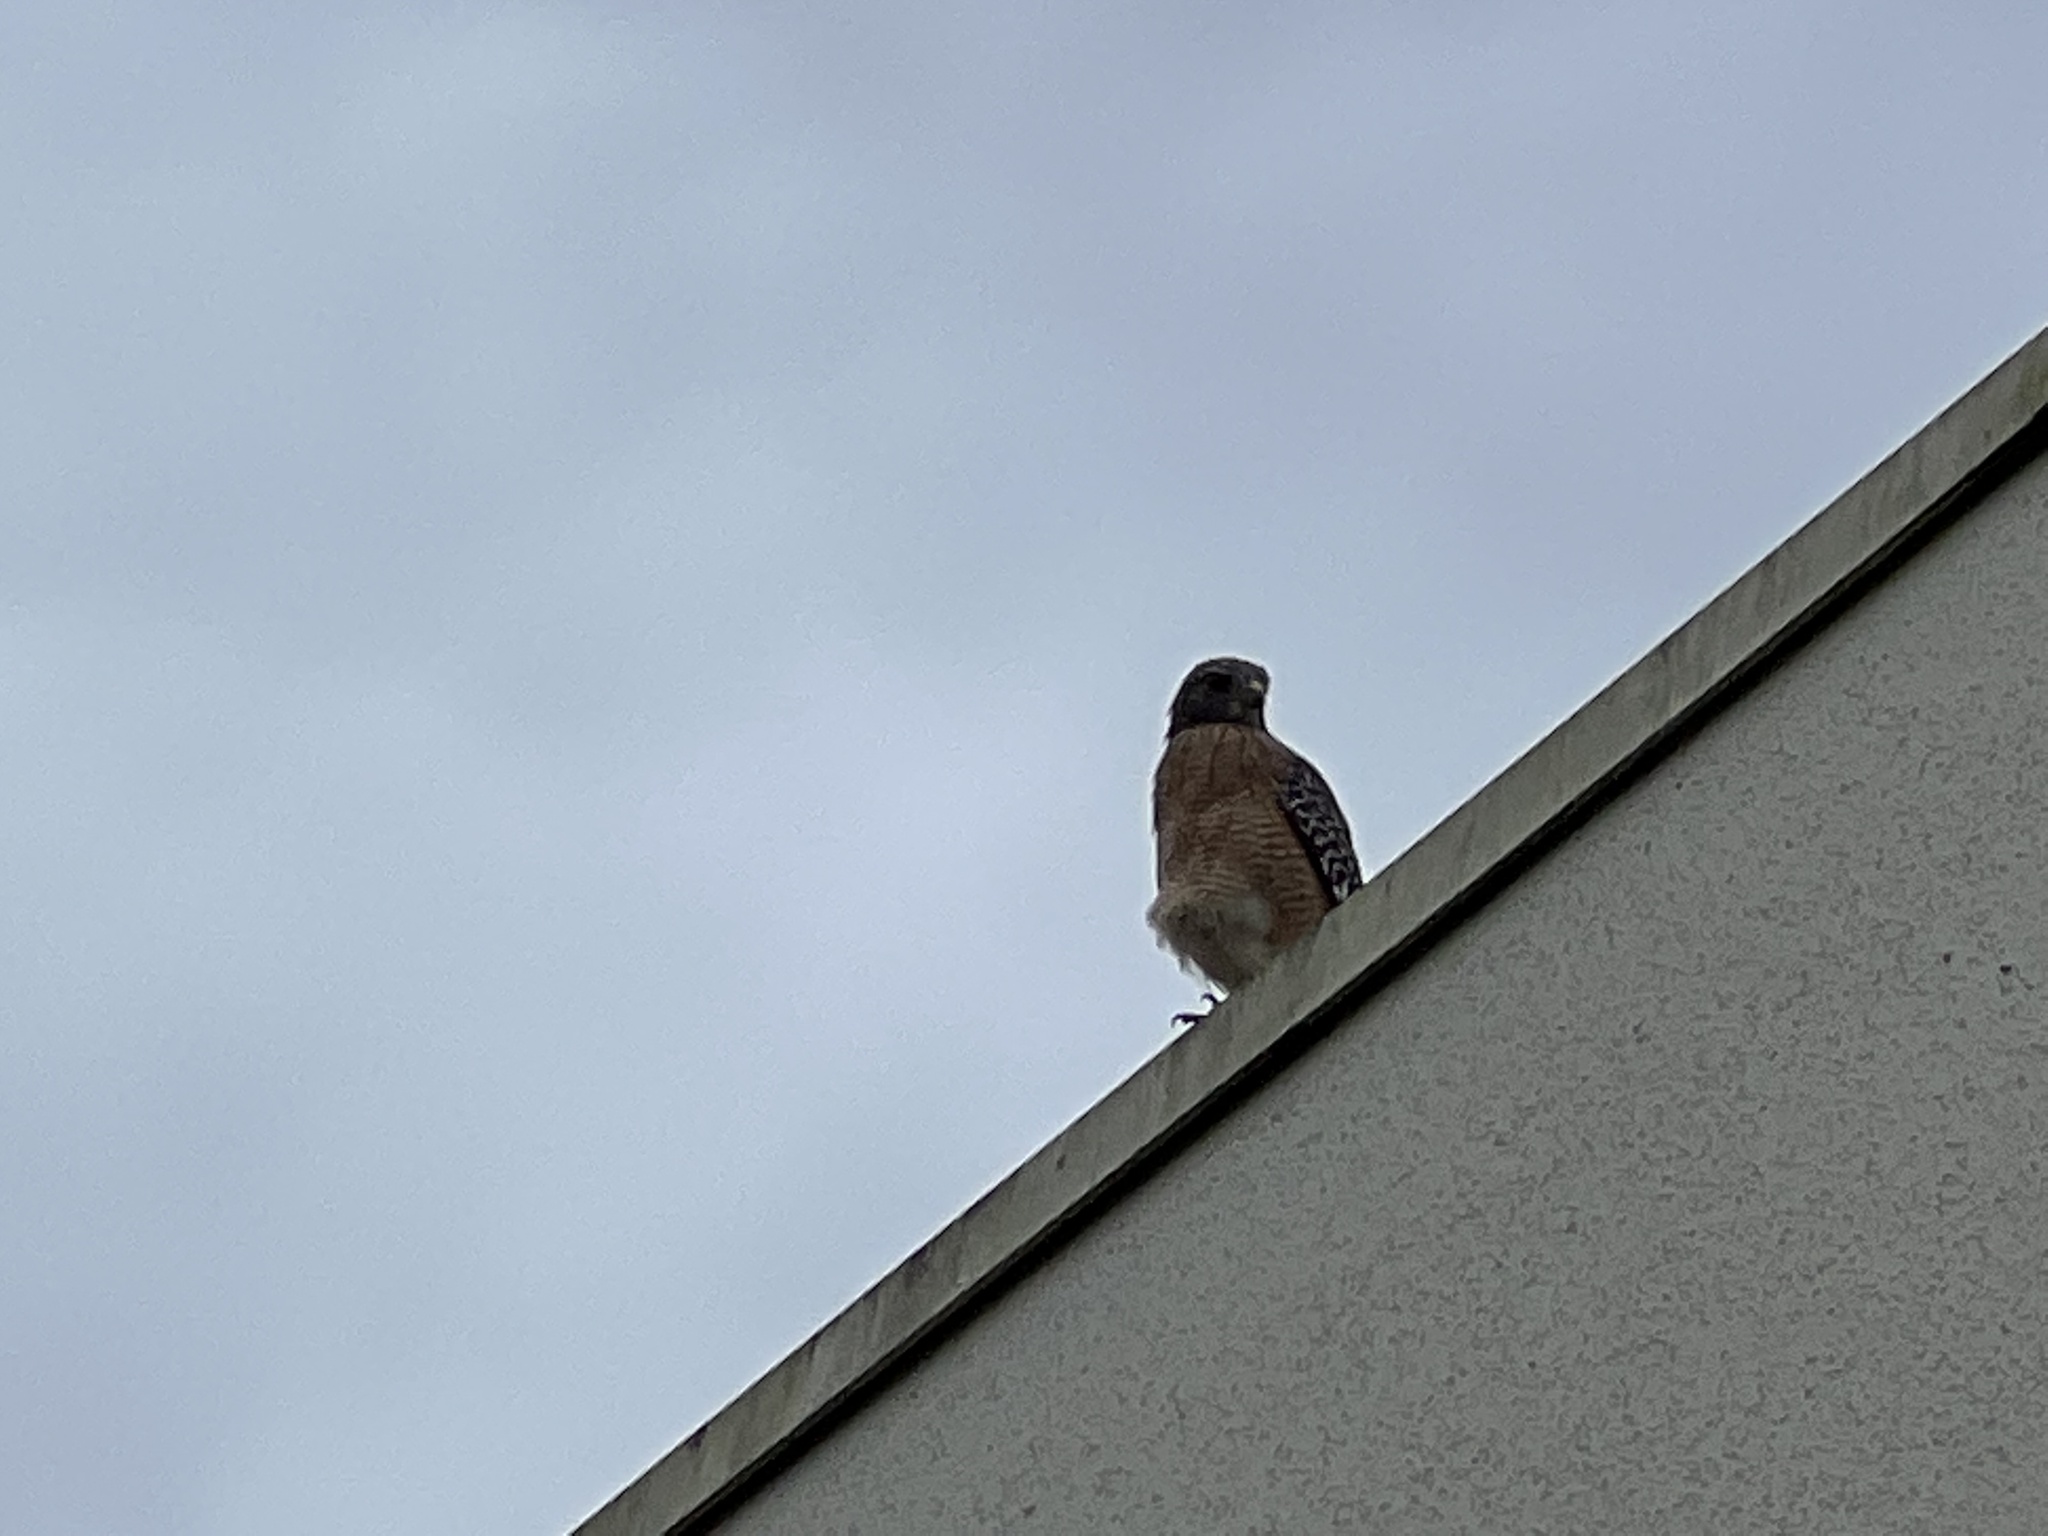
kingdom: Animalia
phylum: Chordata
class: Aves
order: Accipitriformes
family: Accipitridae
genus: Buteo
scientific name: Buteo lineatus
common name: Red-shouldered hawk
